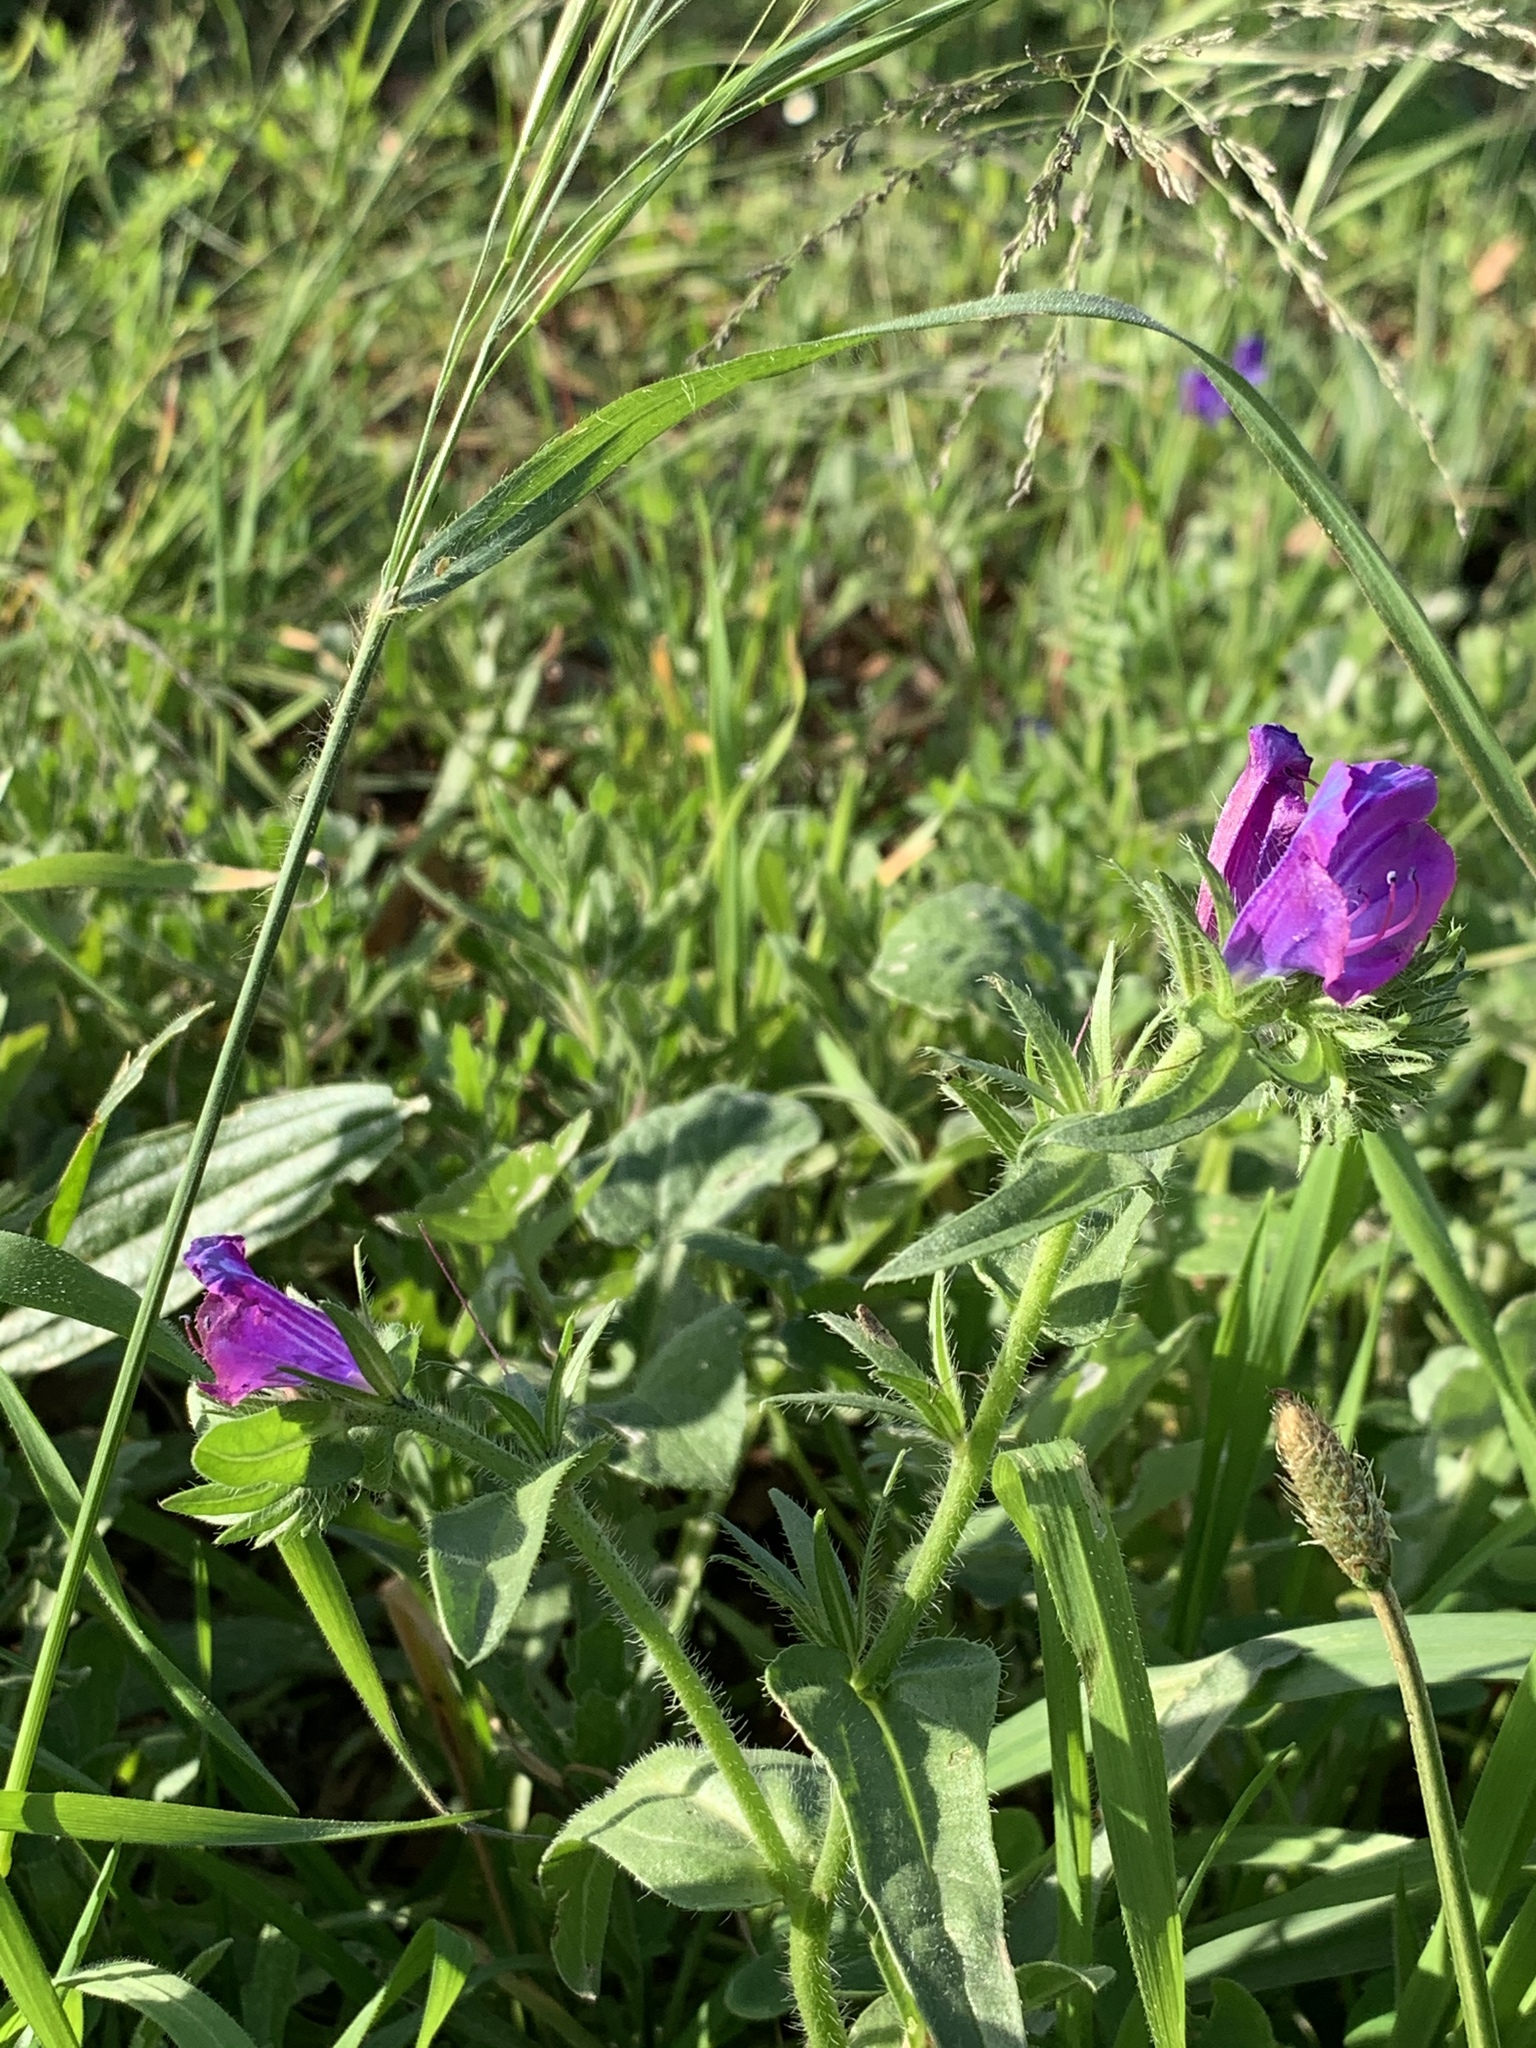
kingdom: Plantae
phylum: Tracheophyta
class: Magnoliopsida
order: Boraginales
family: Boraginaceae
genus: Echium
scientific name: Echium plantagineum
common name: Purple viper's-bugloss
